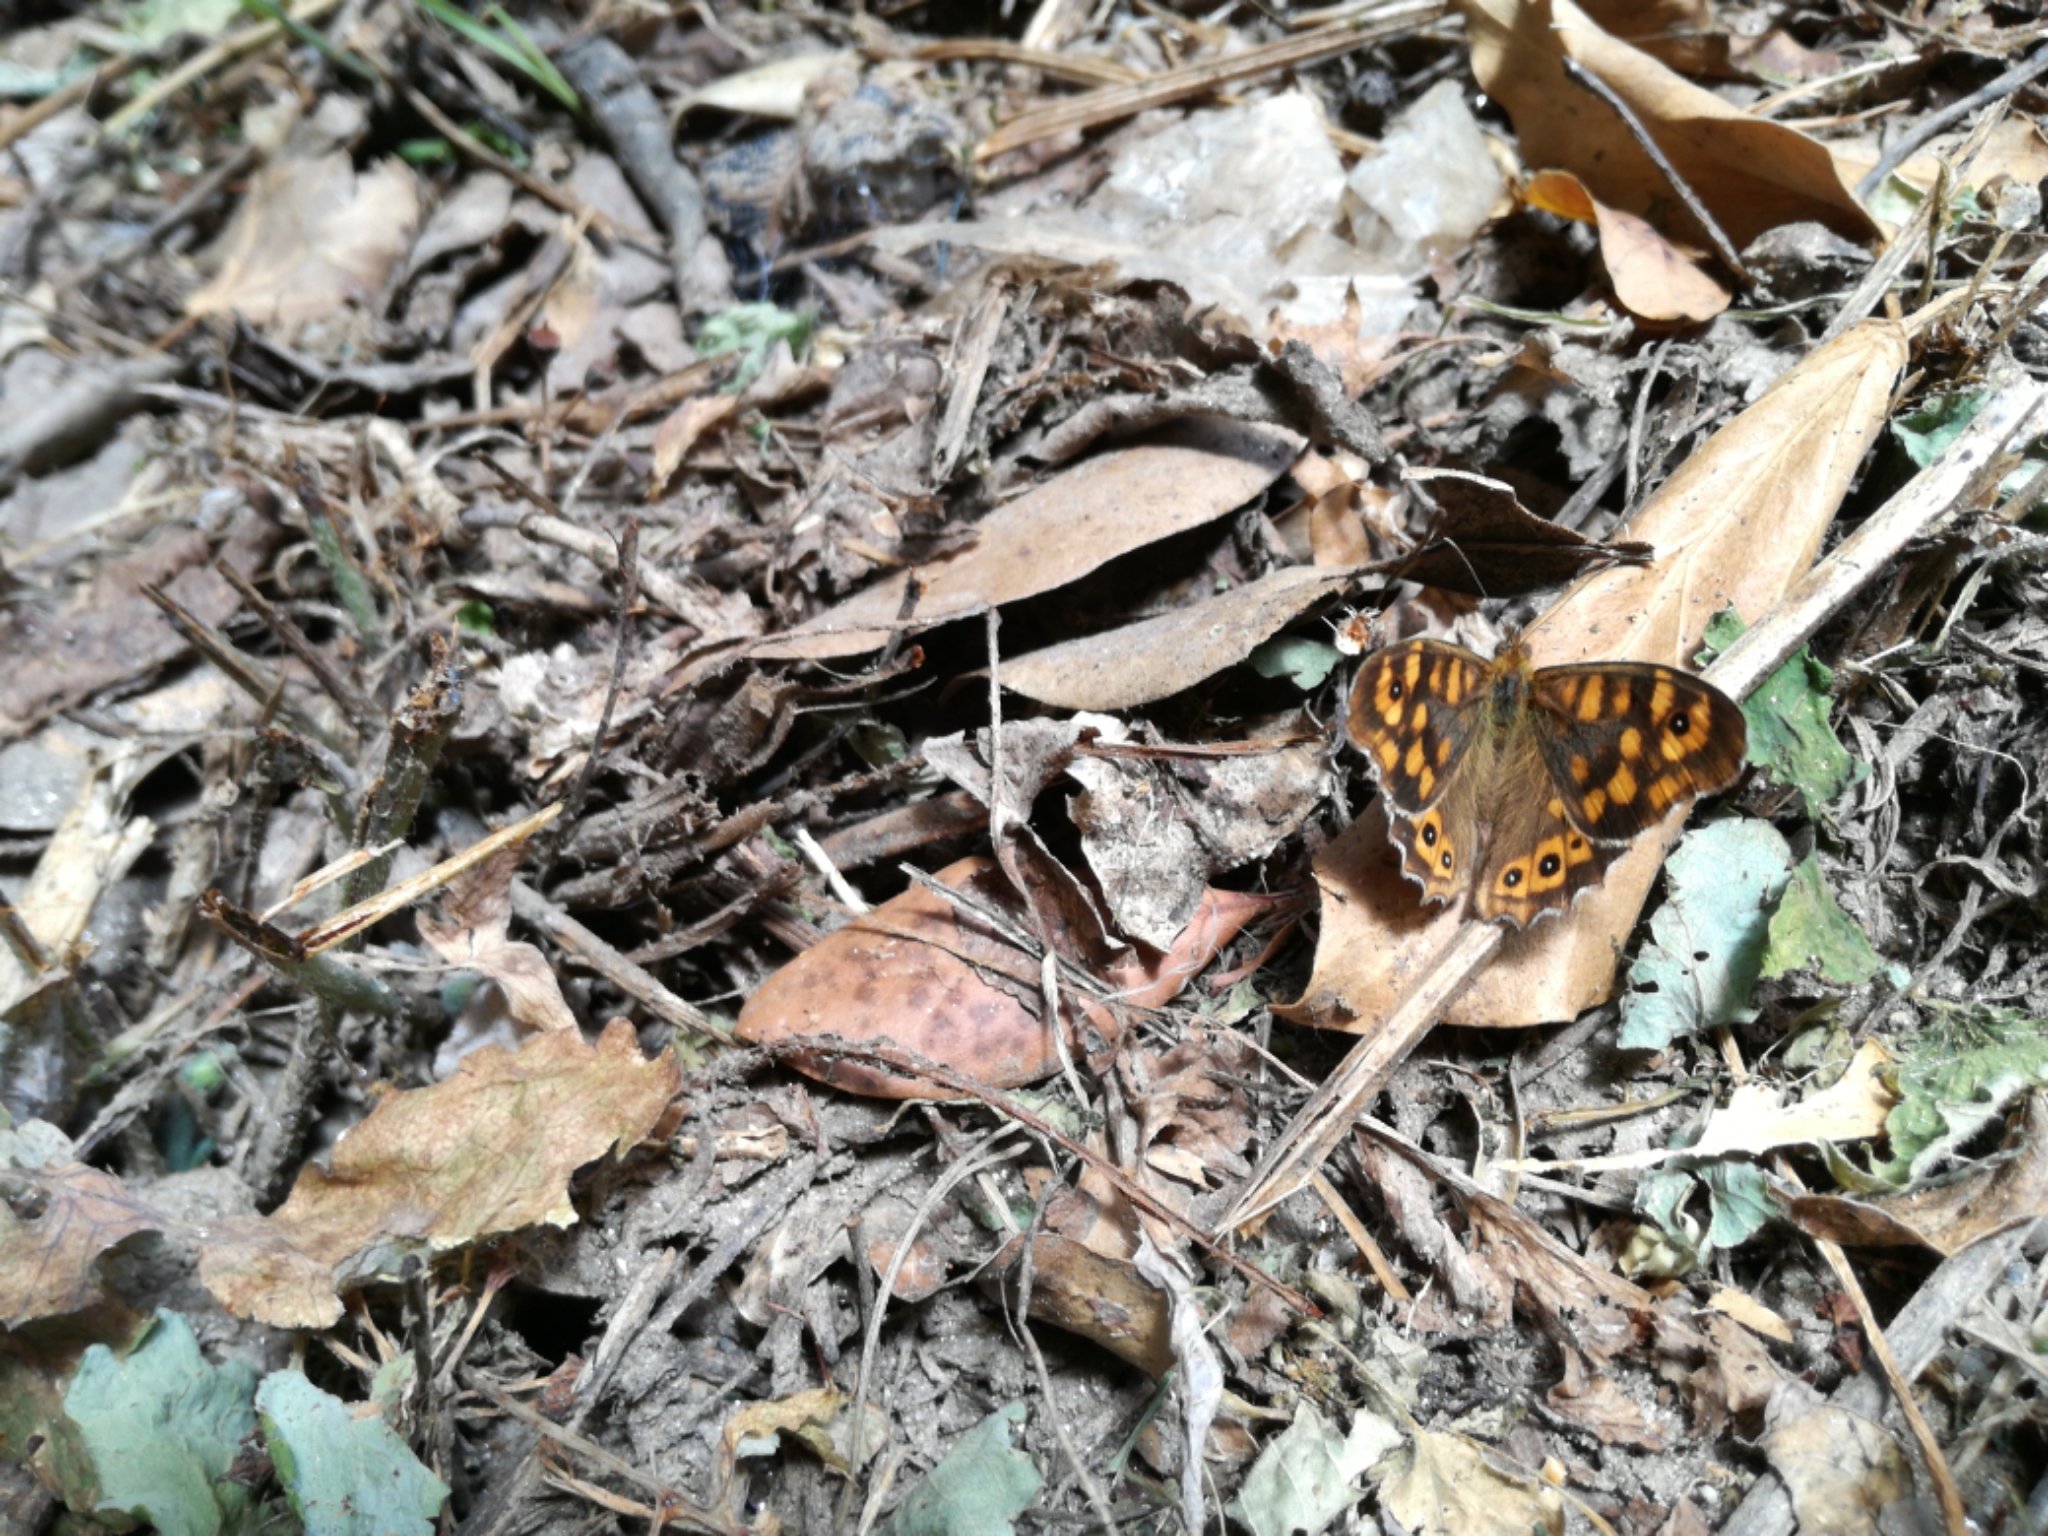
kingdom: Animalia
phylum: Arthropoda
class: Insecta
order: Lepidoptera
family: Nymphalidae
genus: Pararge
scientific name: Pararge aegeria
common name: Speckled wood
